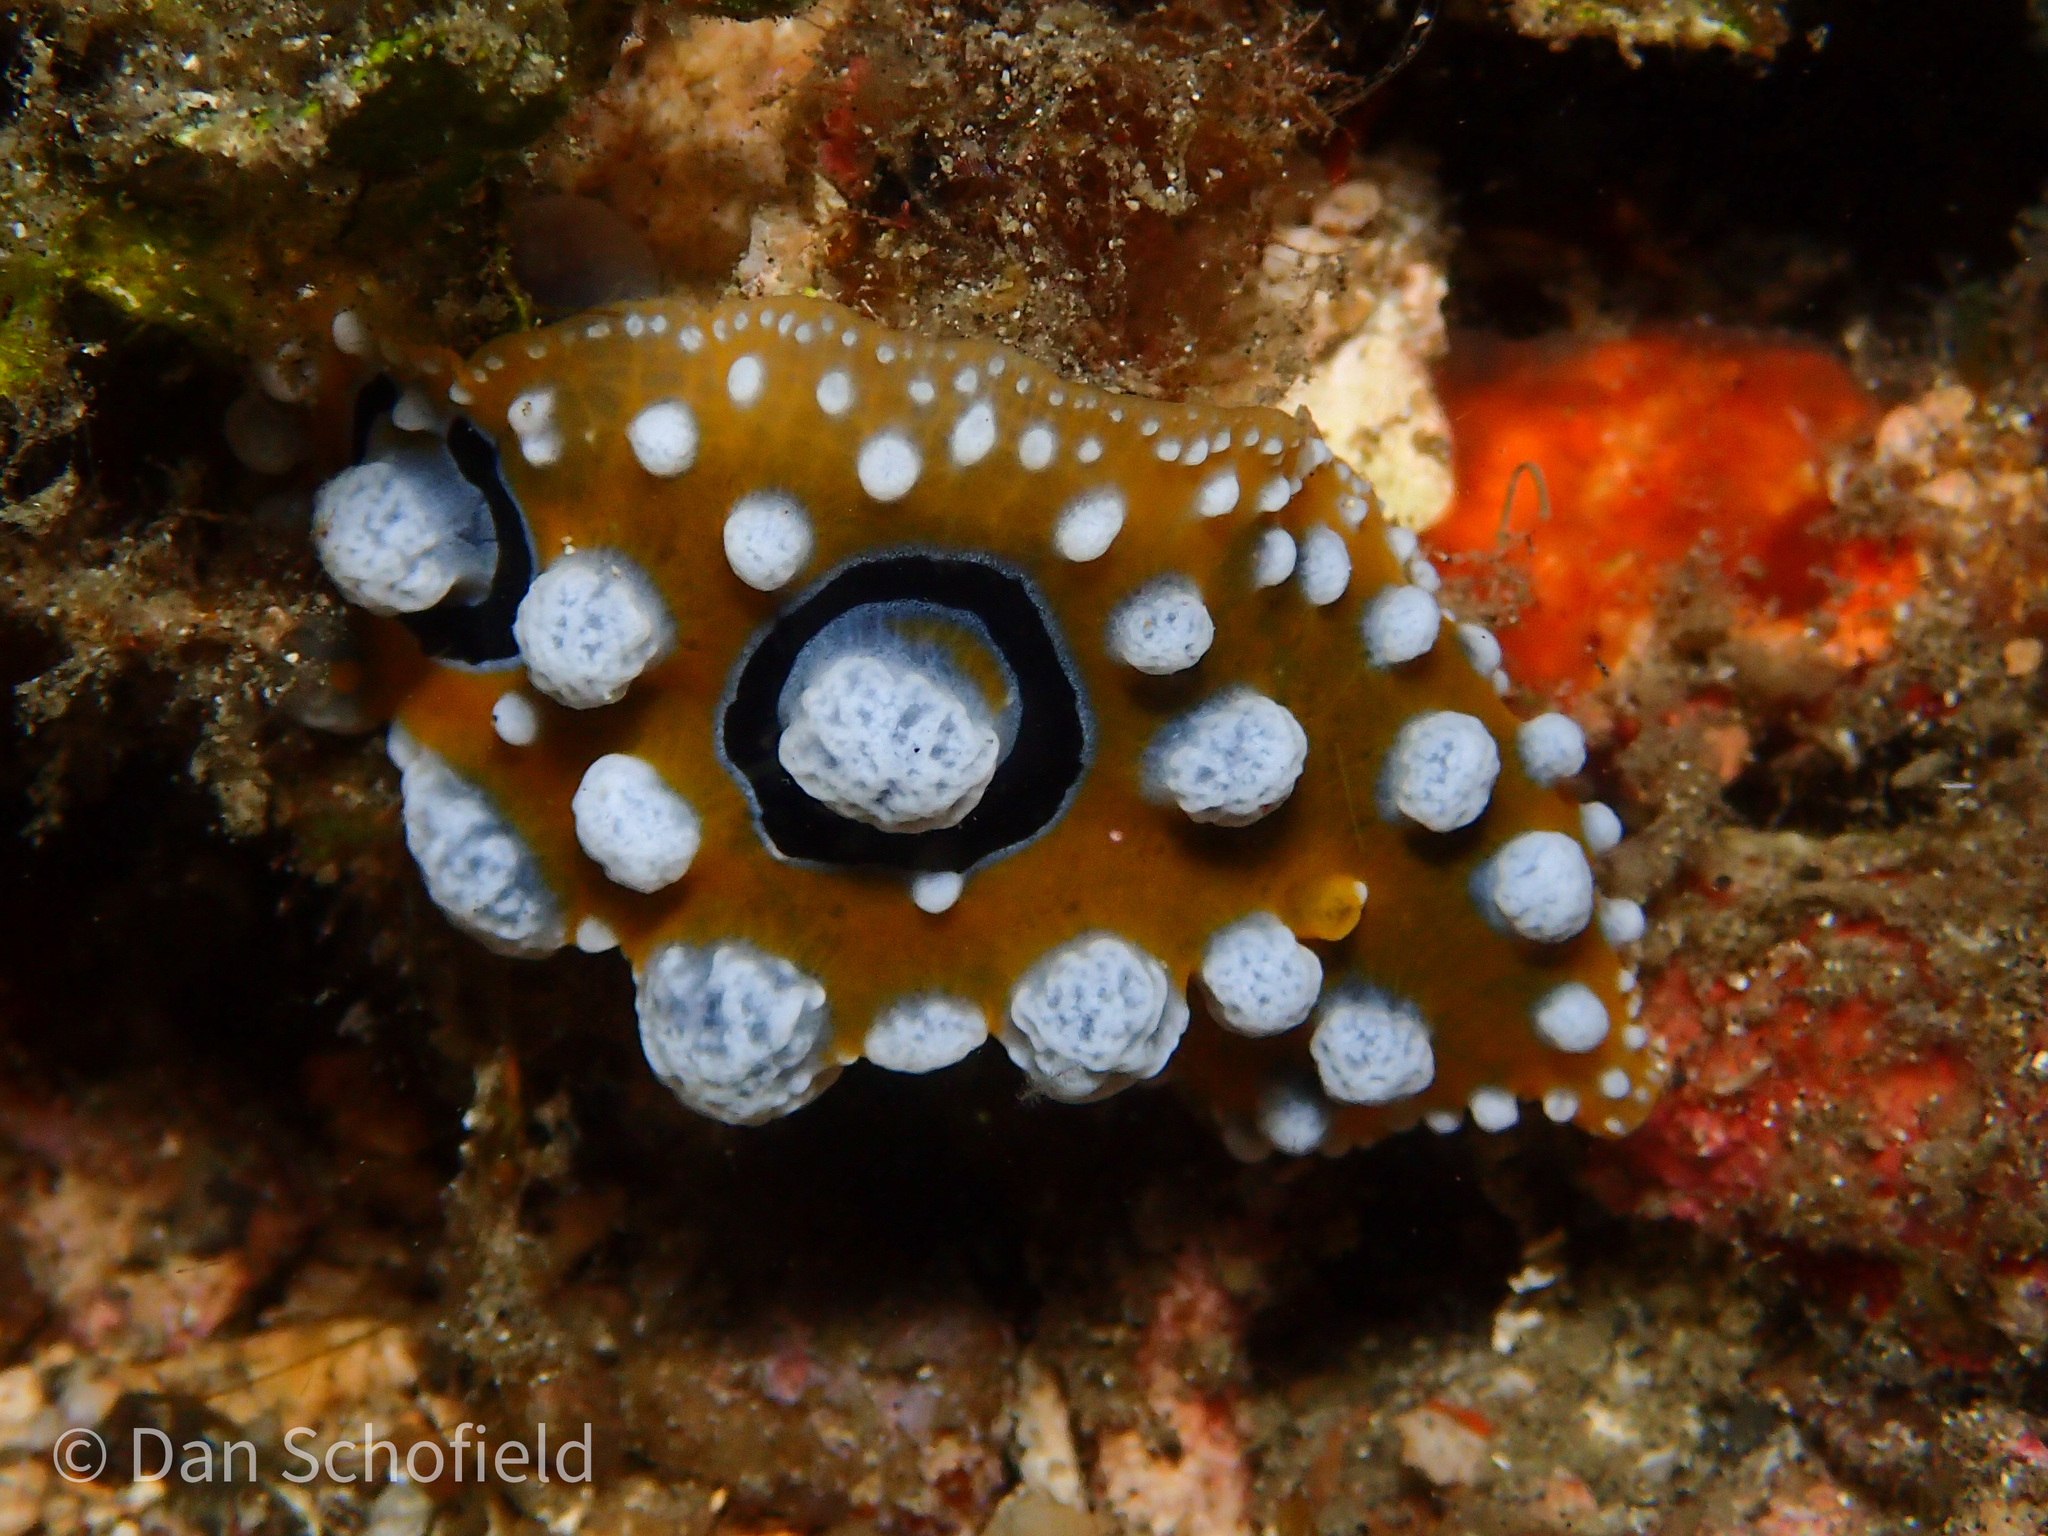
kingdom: Animalia
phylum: Mollusca
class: Gastropoda
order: Nudibranchia
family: Phyllidiidae
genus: Phyllidia
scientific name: Phyllidia ocellata
